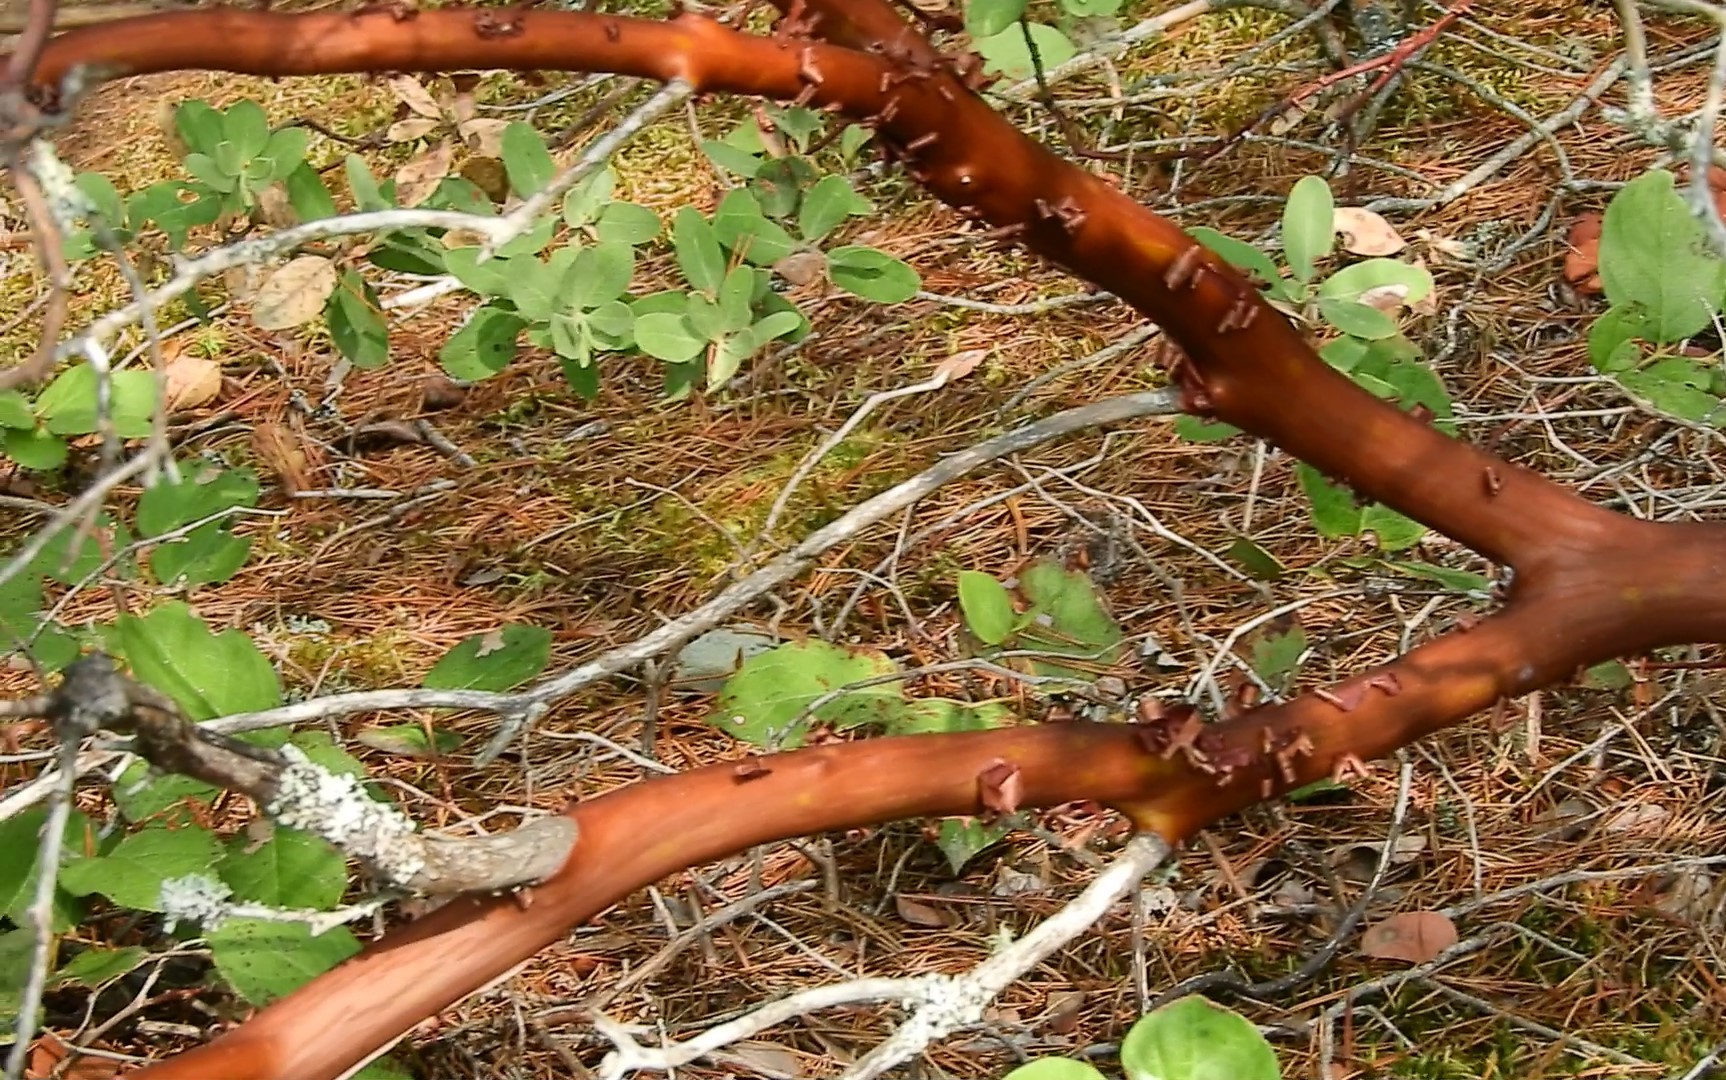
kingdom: Plantae
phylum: Tracheophyta
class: Magnoliopsida
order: Ericales
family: Ericaceae
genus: Arctostaphylos
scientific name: Arctostaphylos columbiana
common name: Bristly bearberry
